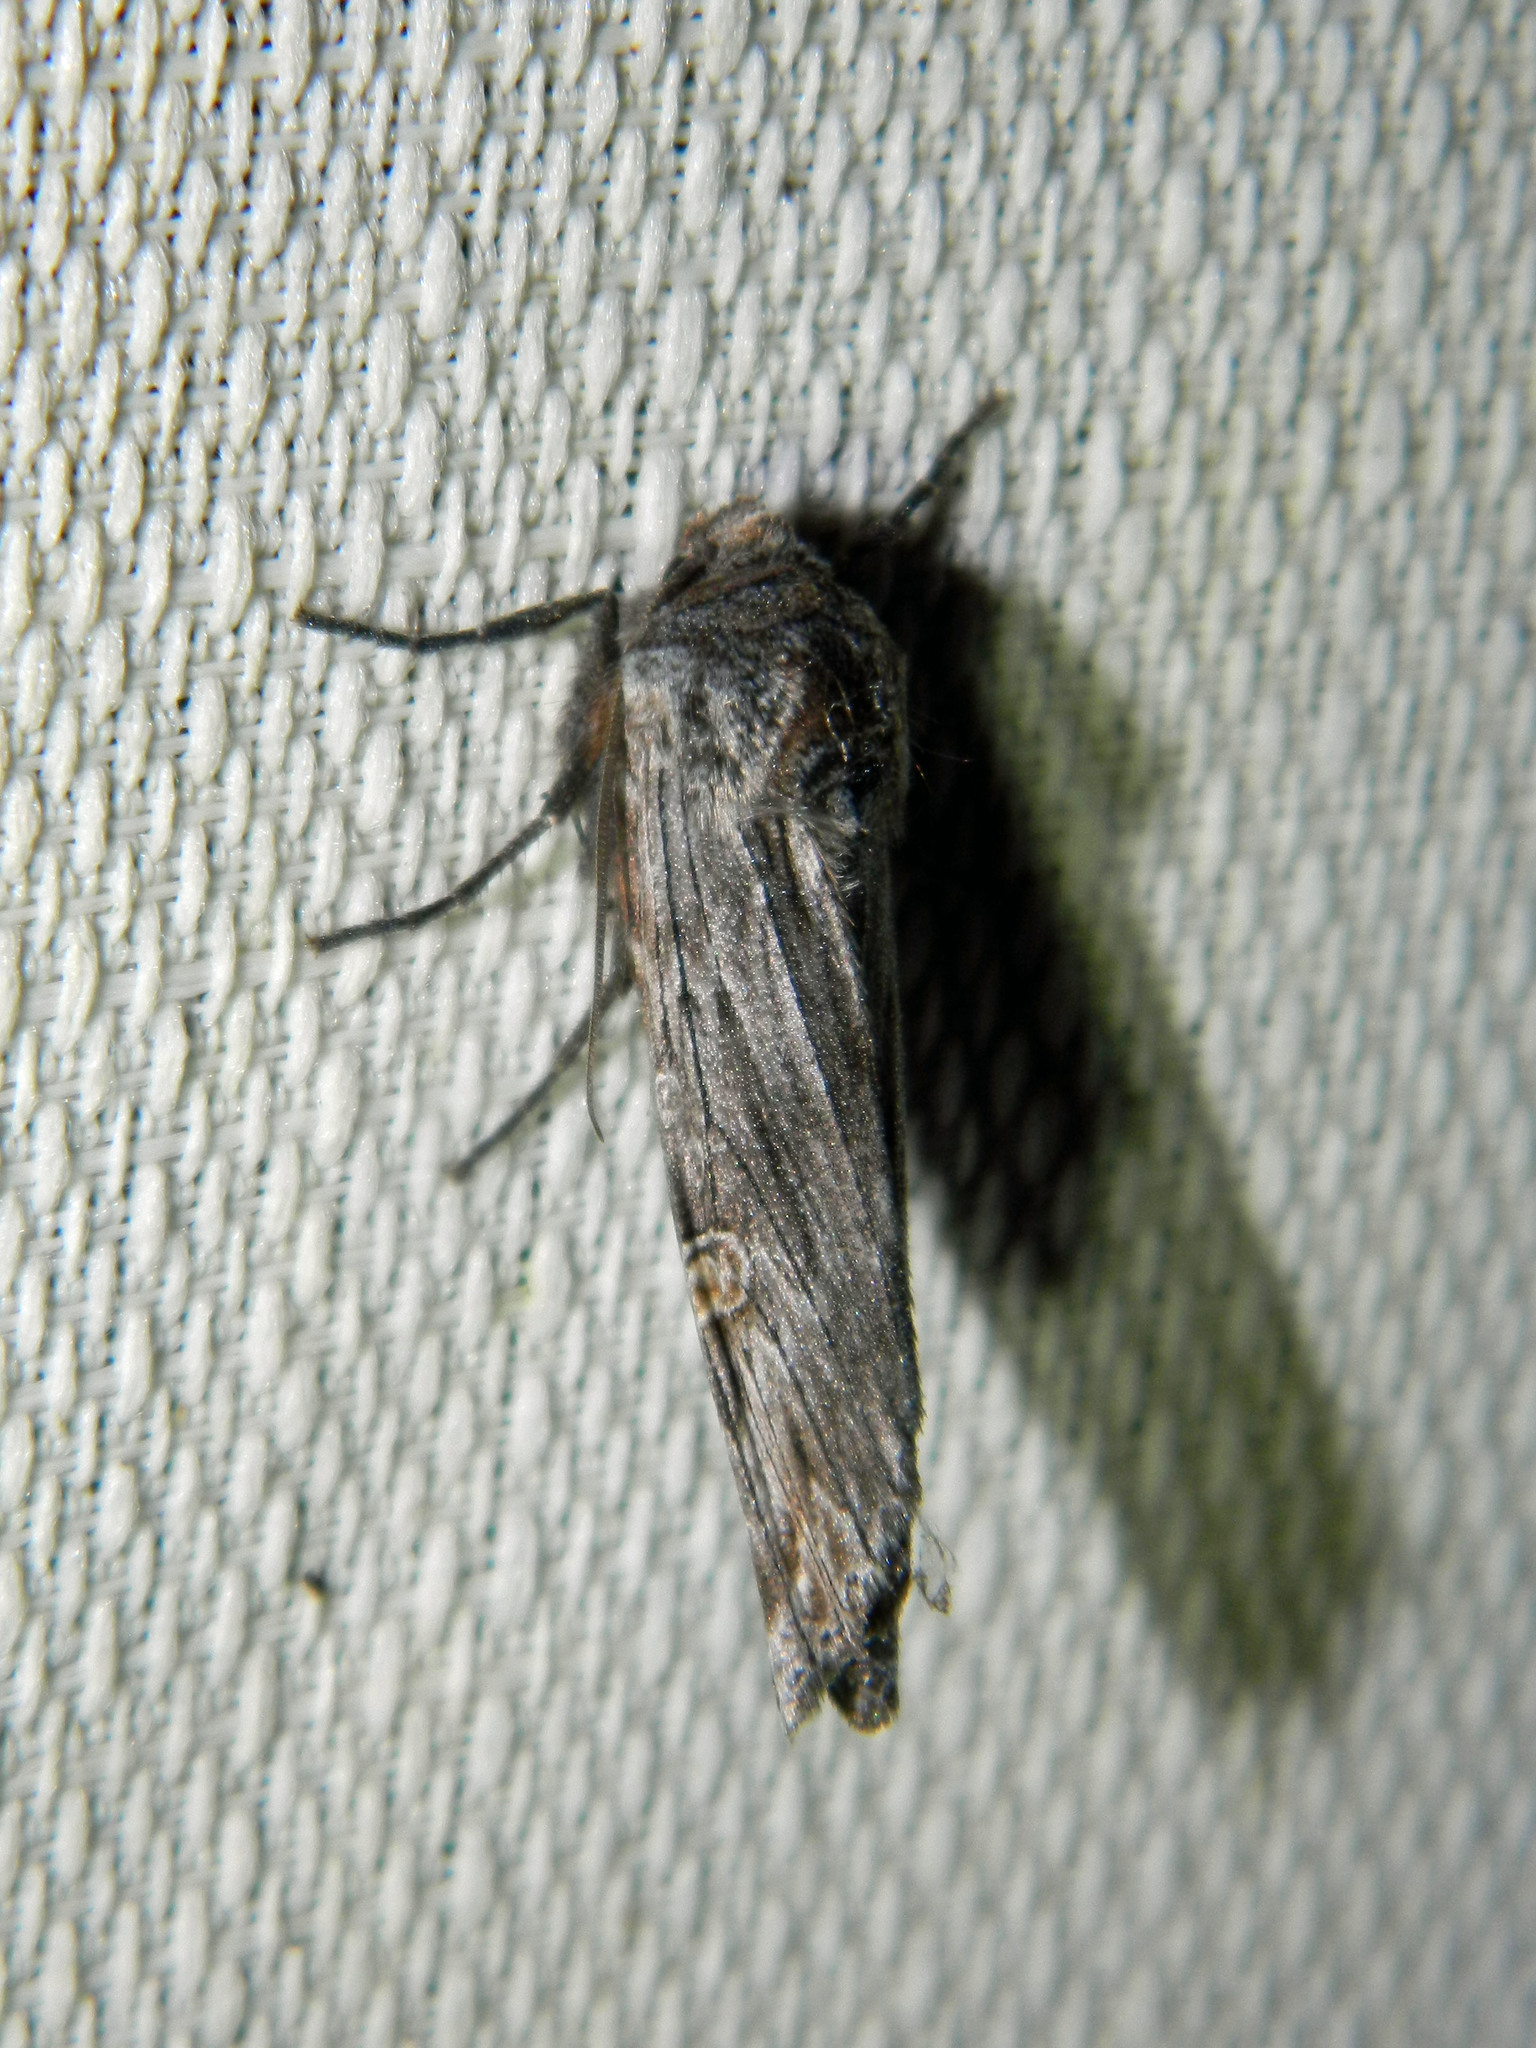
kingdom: Animalia
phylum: Arthropoda
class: Insecta
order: Lepidoptera
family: Noctuidae
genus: Xylena
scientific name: Xylena germana
